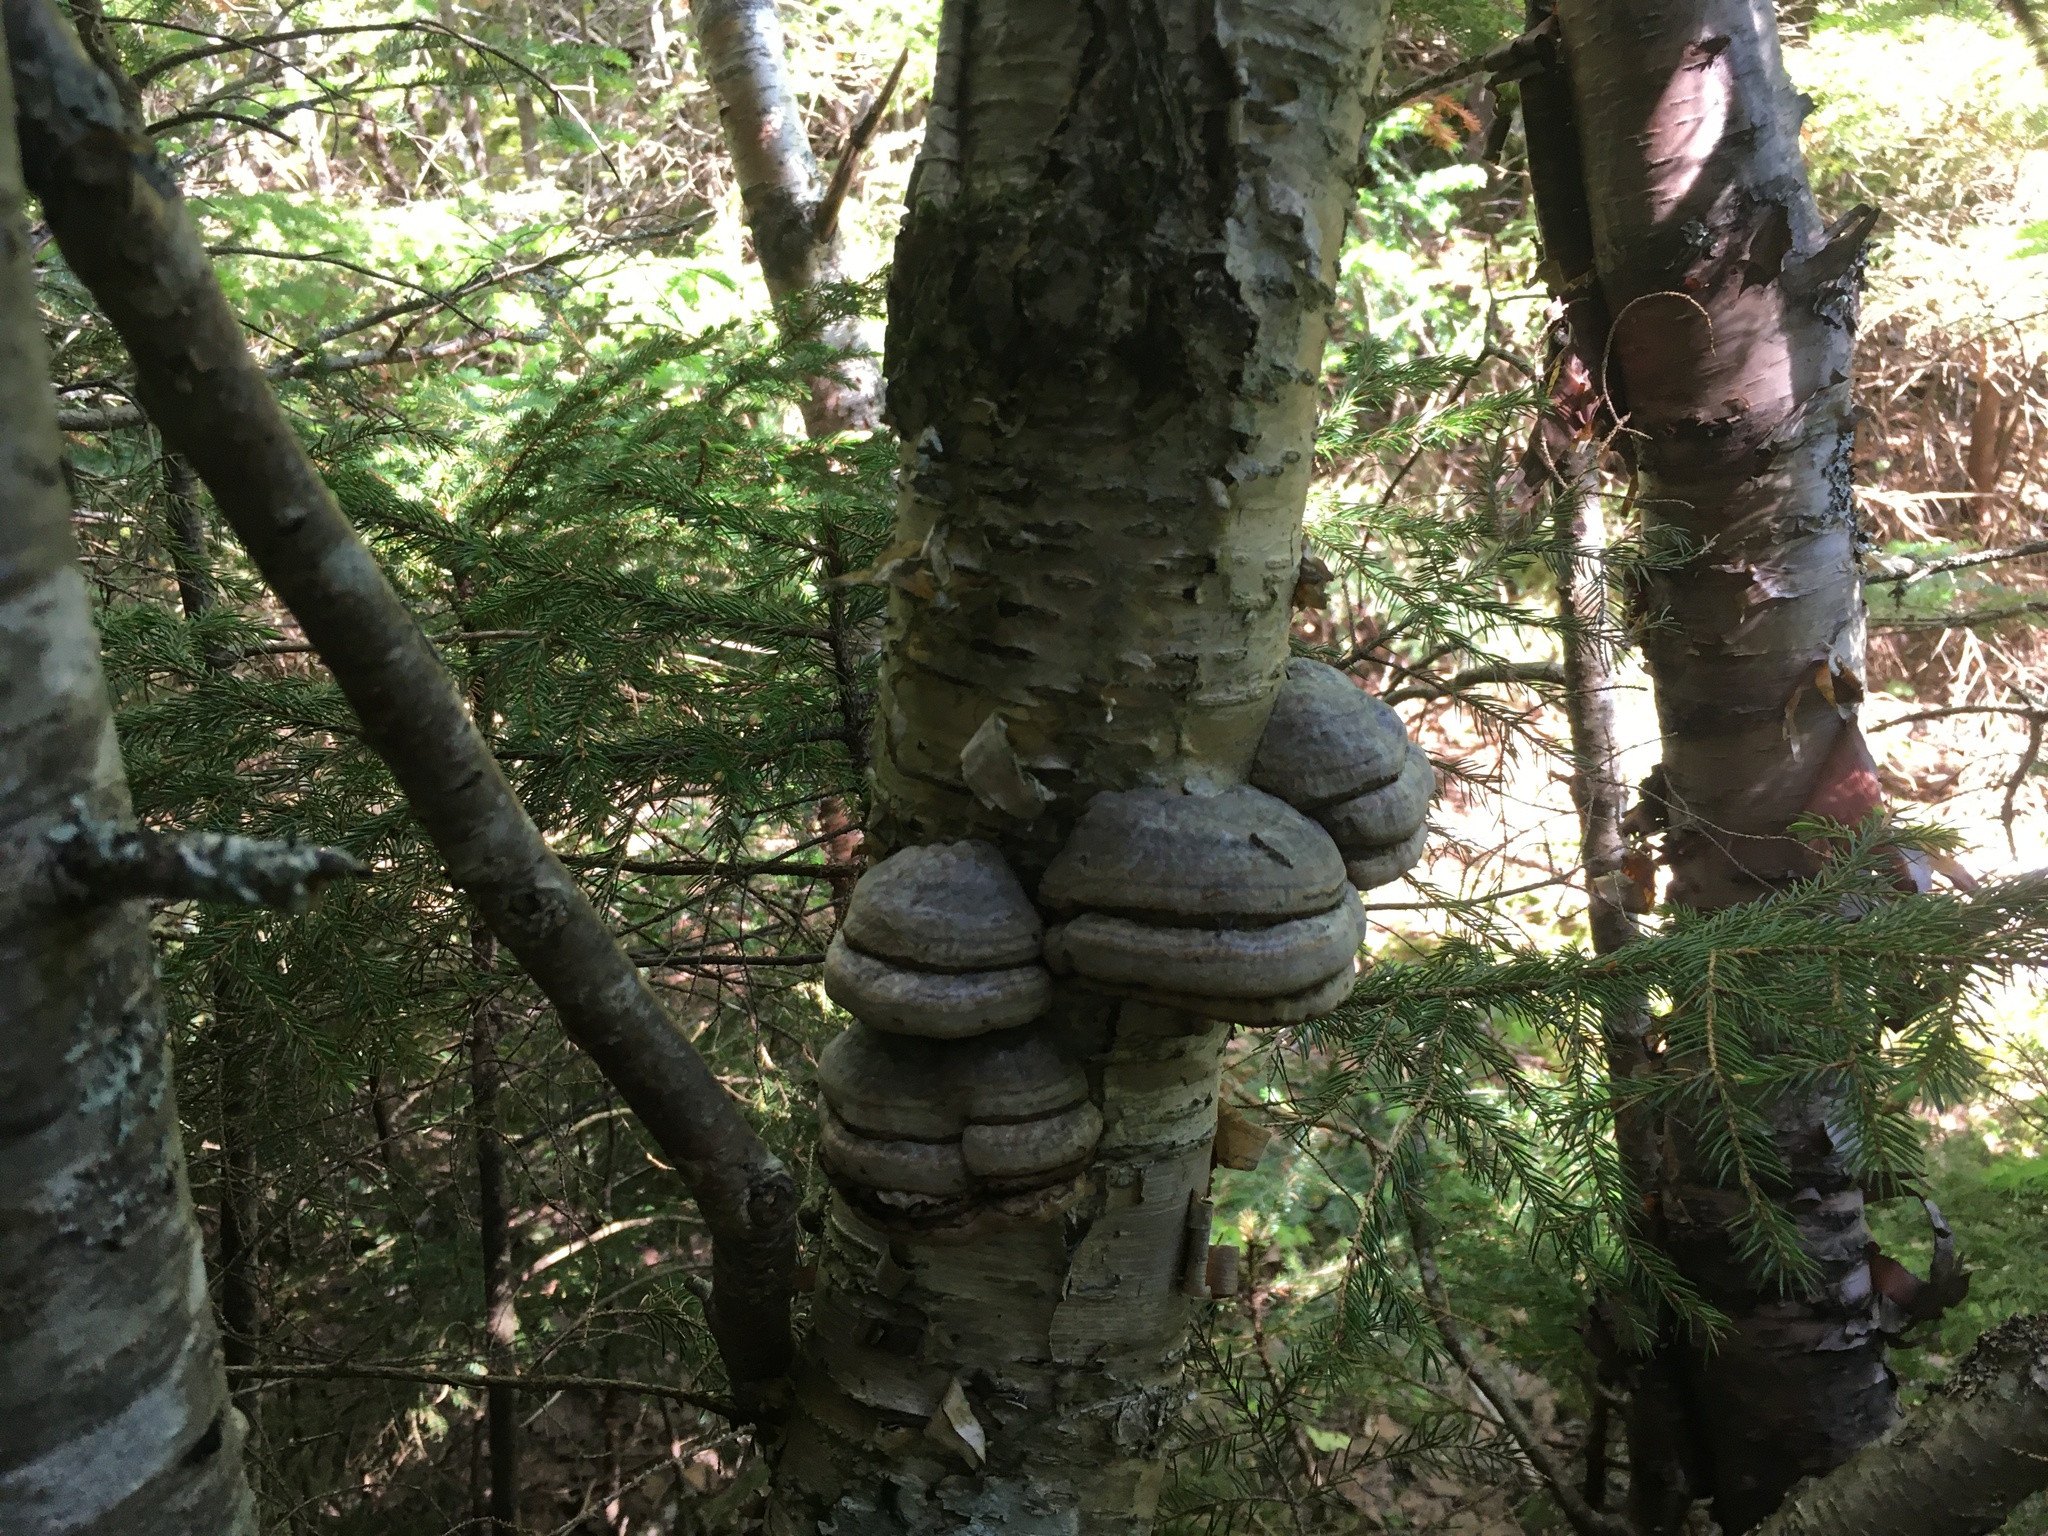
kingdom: Fungi
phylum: Basidiomycota
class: Agaricomycetes
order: Polyporales
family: Polyporaceae
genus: Fomes
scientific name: Fomes fomentarius
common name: Hoof fungus
